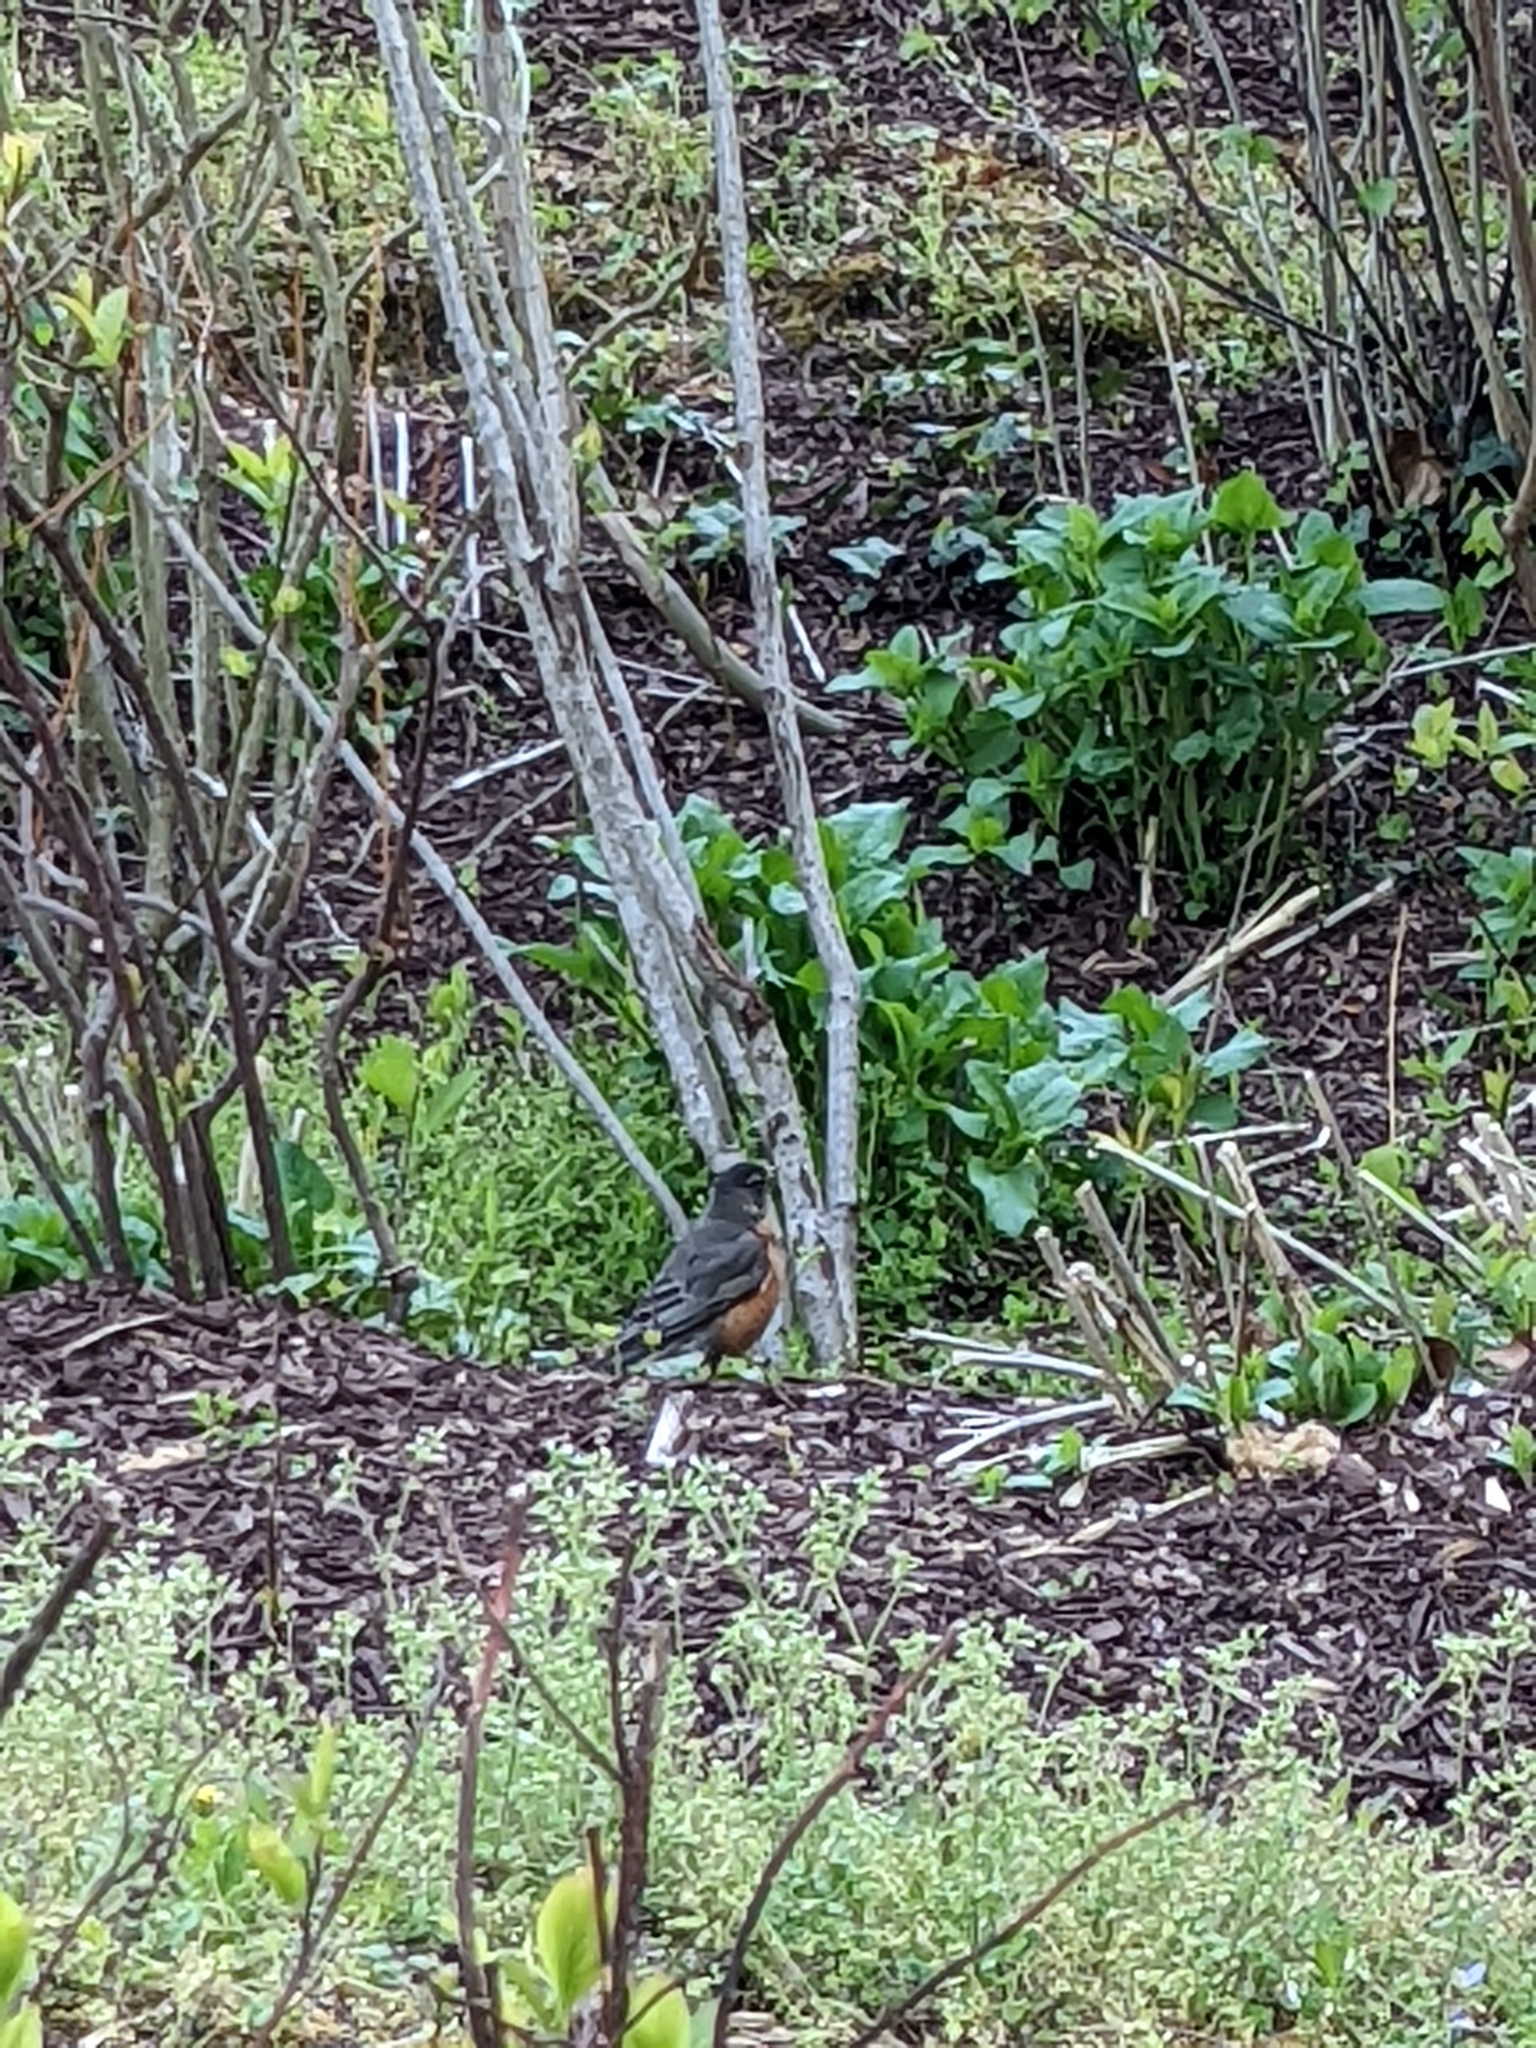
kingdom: Animalia
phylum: Chordata
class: Aves
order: Passeriformes
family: Turdidae
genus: Turdus
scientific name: Turdus migratorius
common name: American robin
